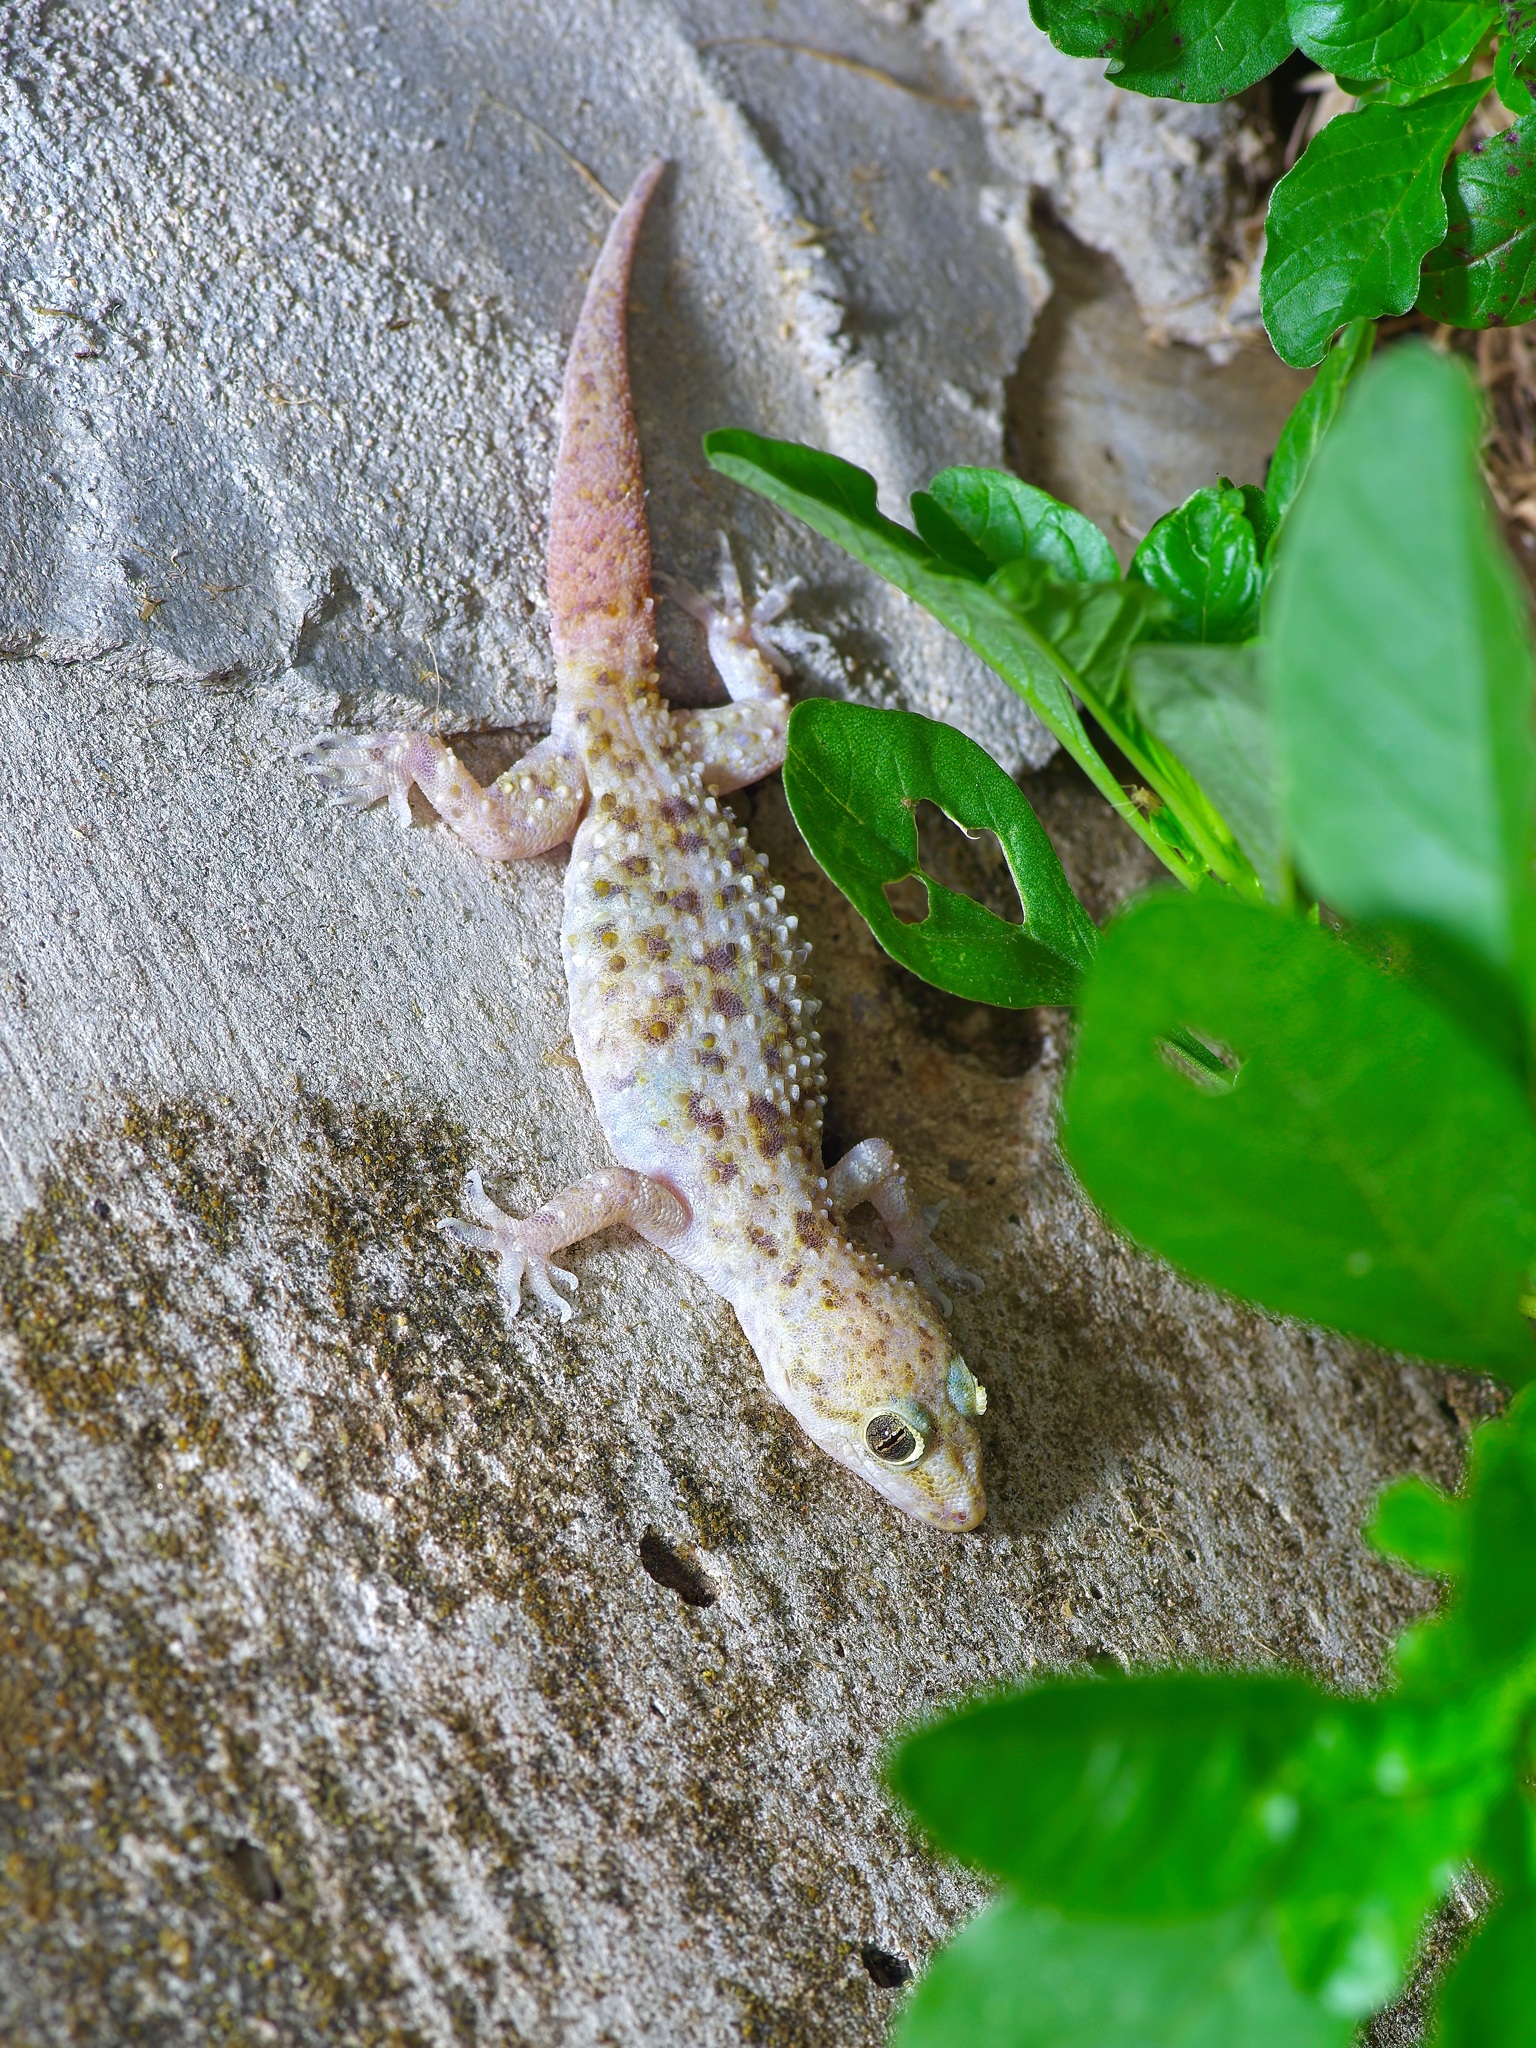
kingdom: Animalia
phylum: Chordata
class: Squamata
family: Gekkonidae
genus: Hemidactylus
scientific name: Hemidactylus turcicus
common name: Turkish gecko
